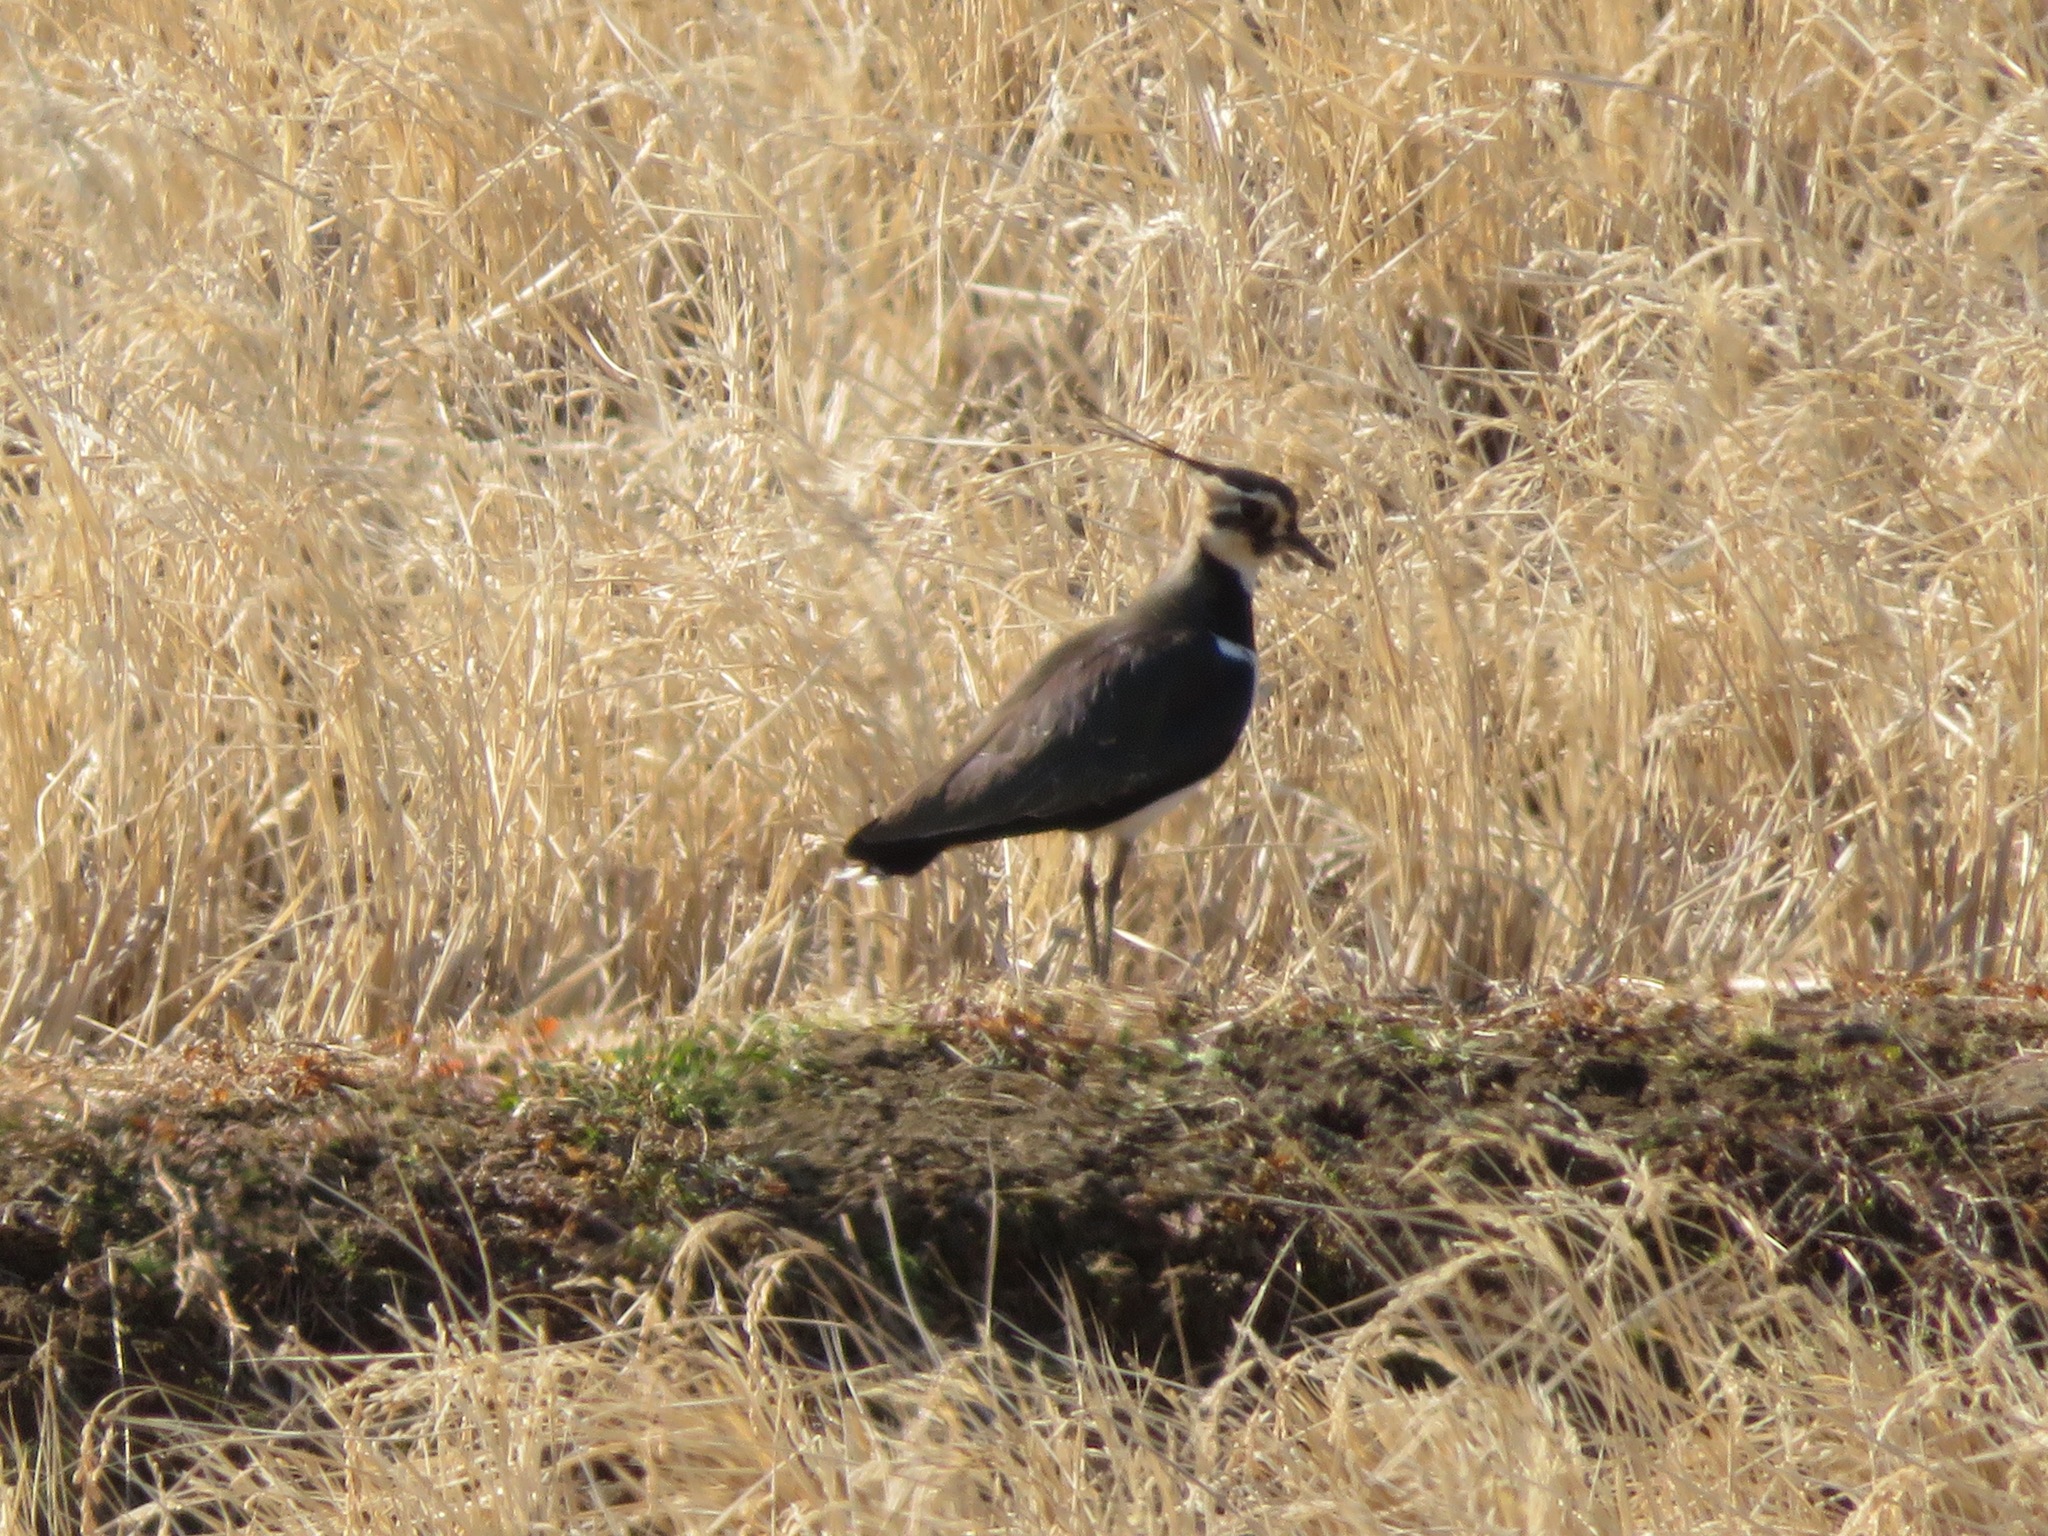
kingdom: Animalia
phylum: Chordata
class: Aves
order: Charadriiformes
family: Charadriidae
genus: Vanellus
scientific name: Vanellus vanellus
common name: Northern lapwing
